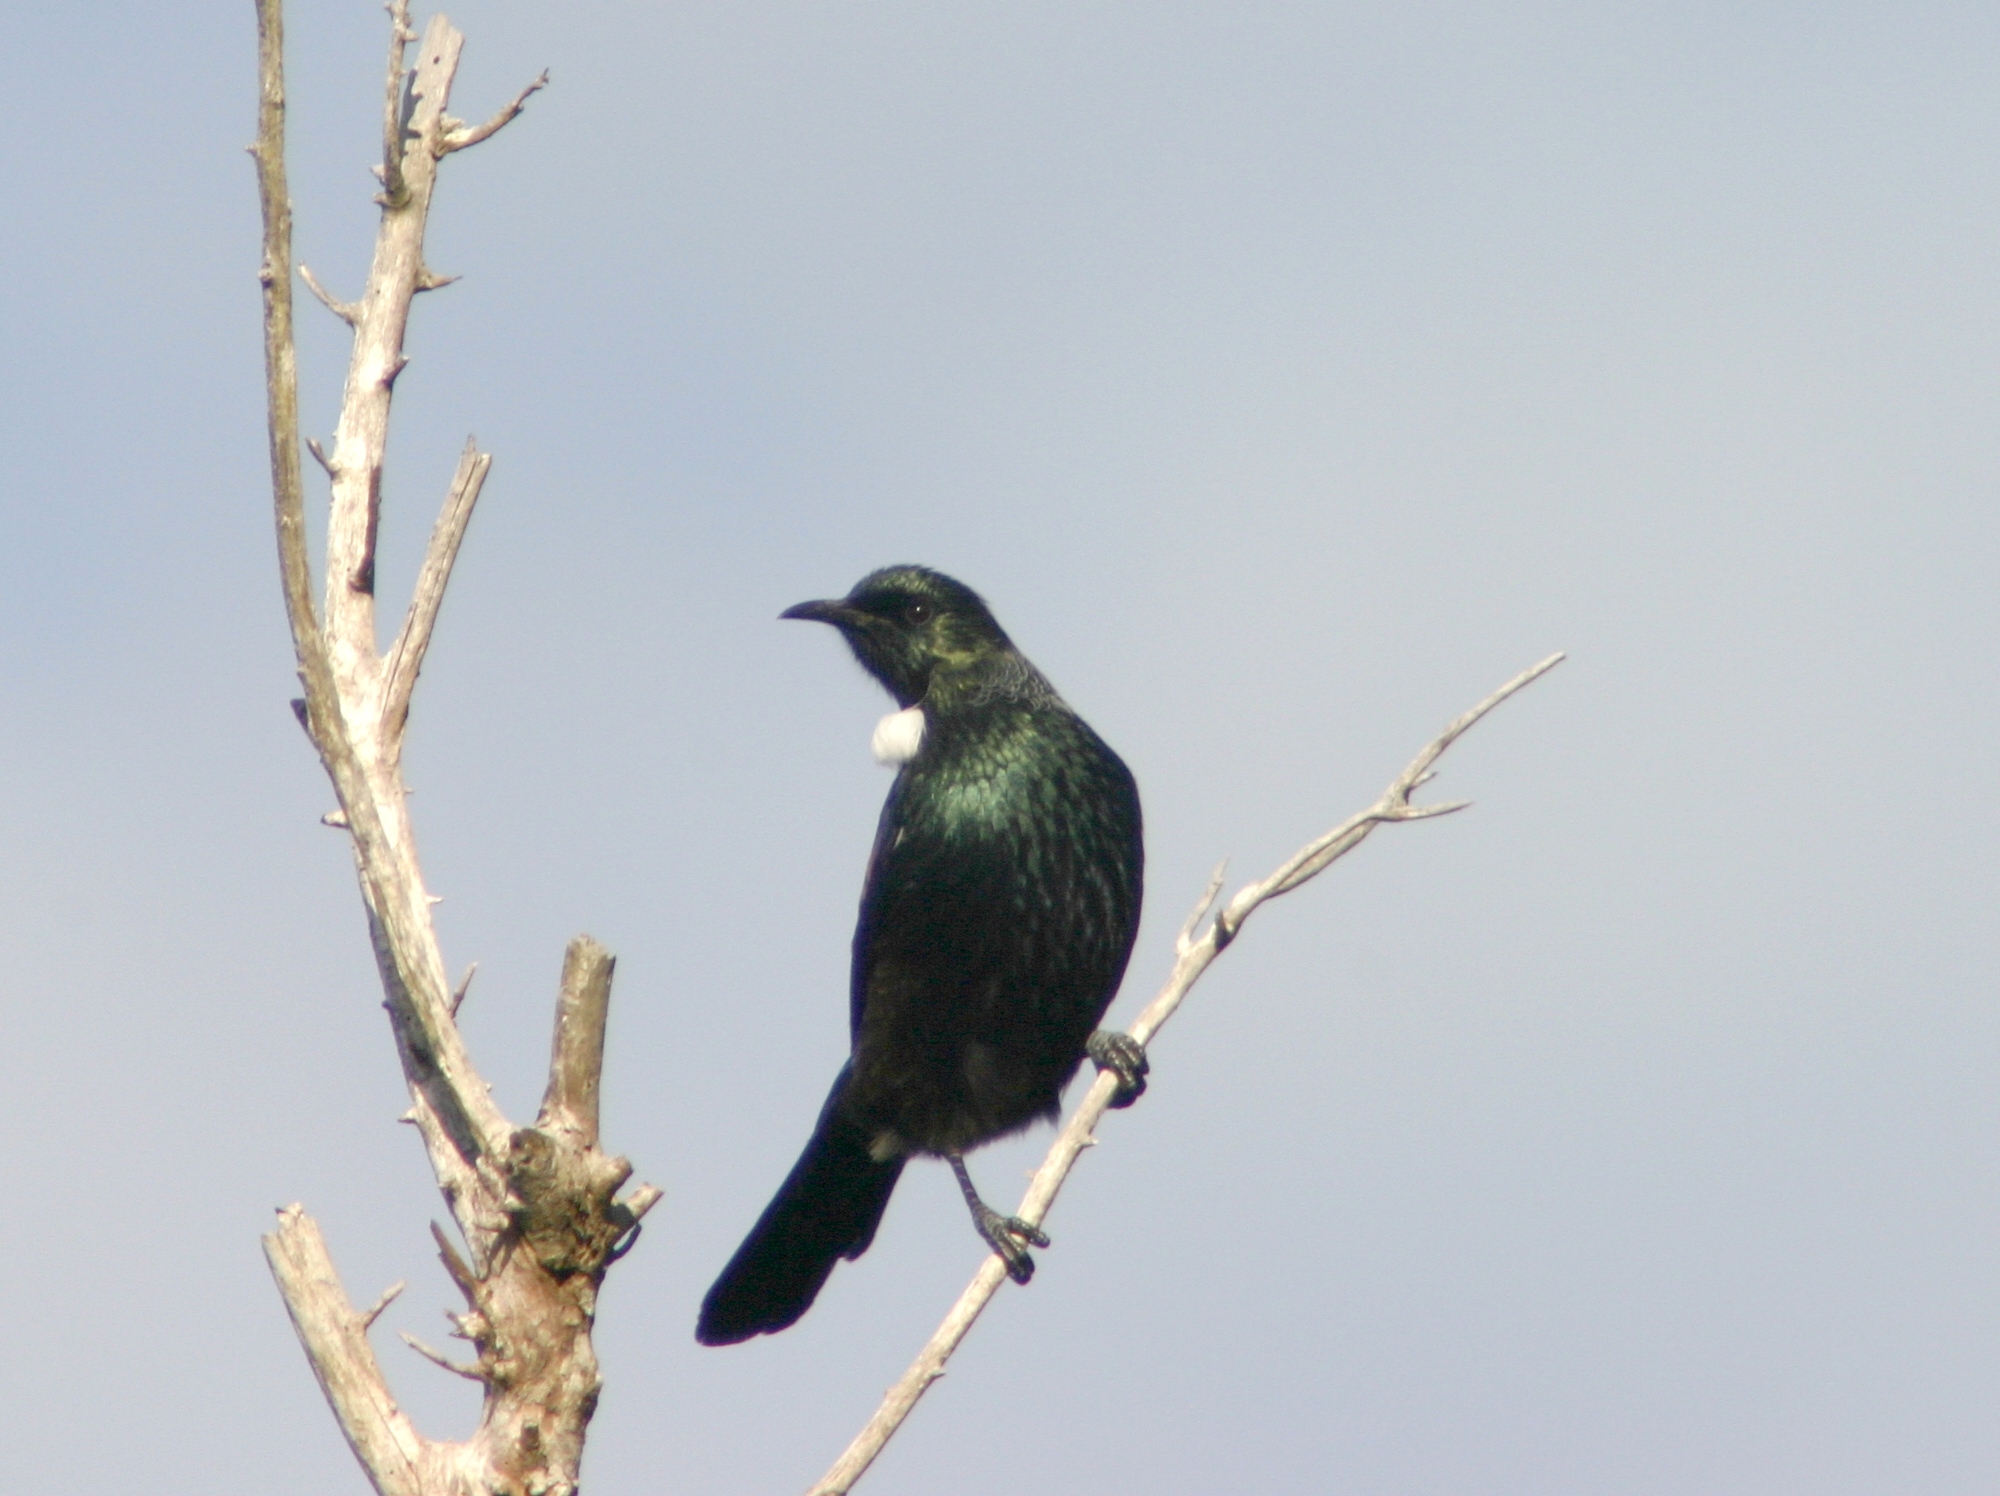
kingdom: Animalia
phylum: Chordata
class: Aves
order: Passeriformes
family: Meliphagidae
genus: Prosthemadera
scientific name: Prosthemadera novaeseelandiae
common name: Tui
